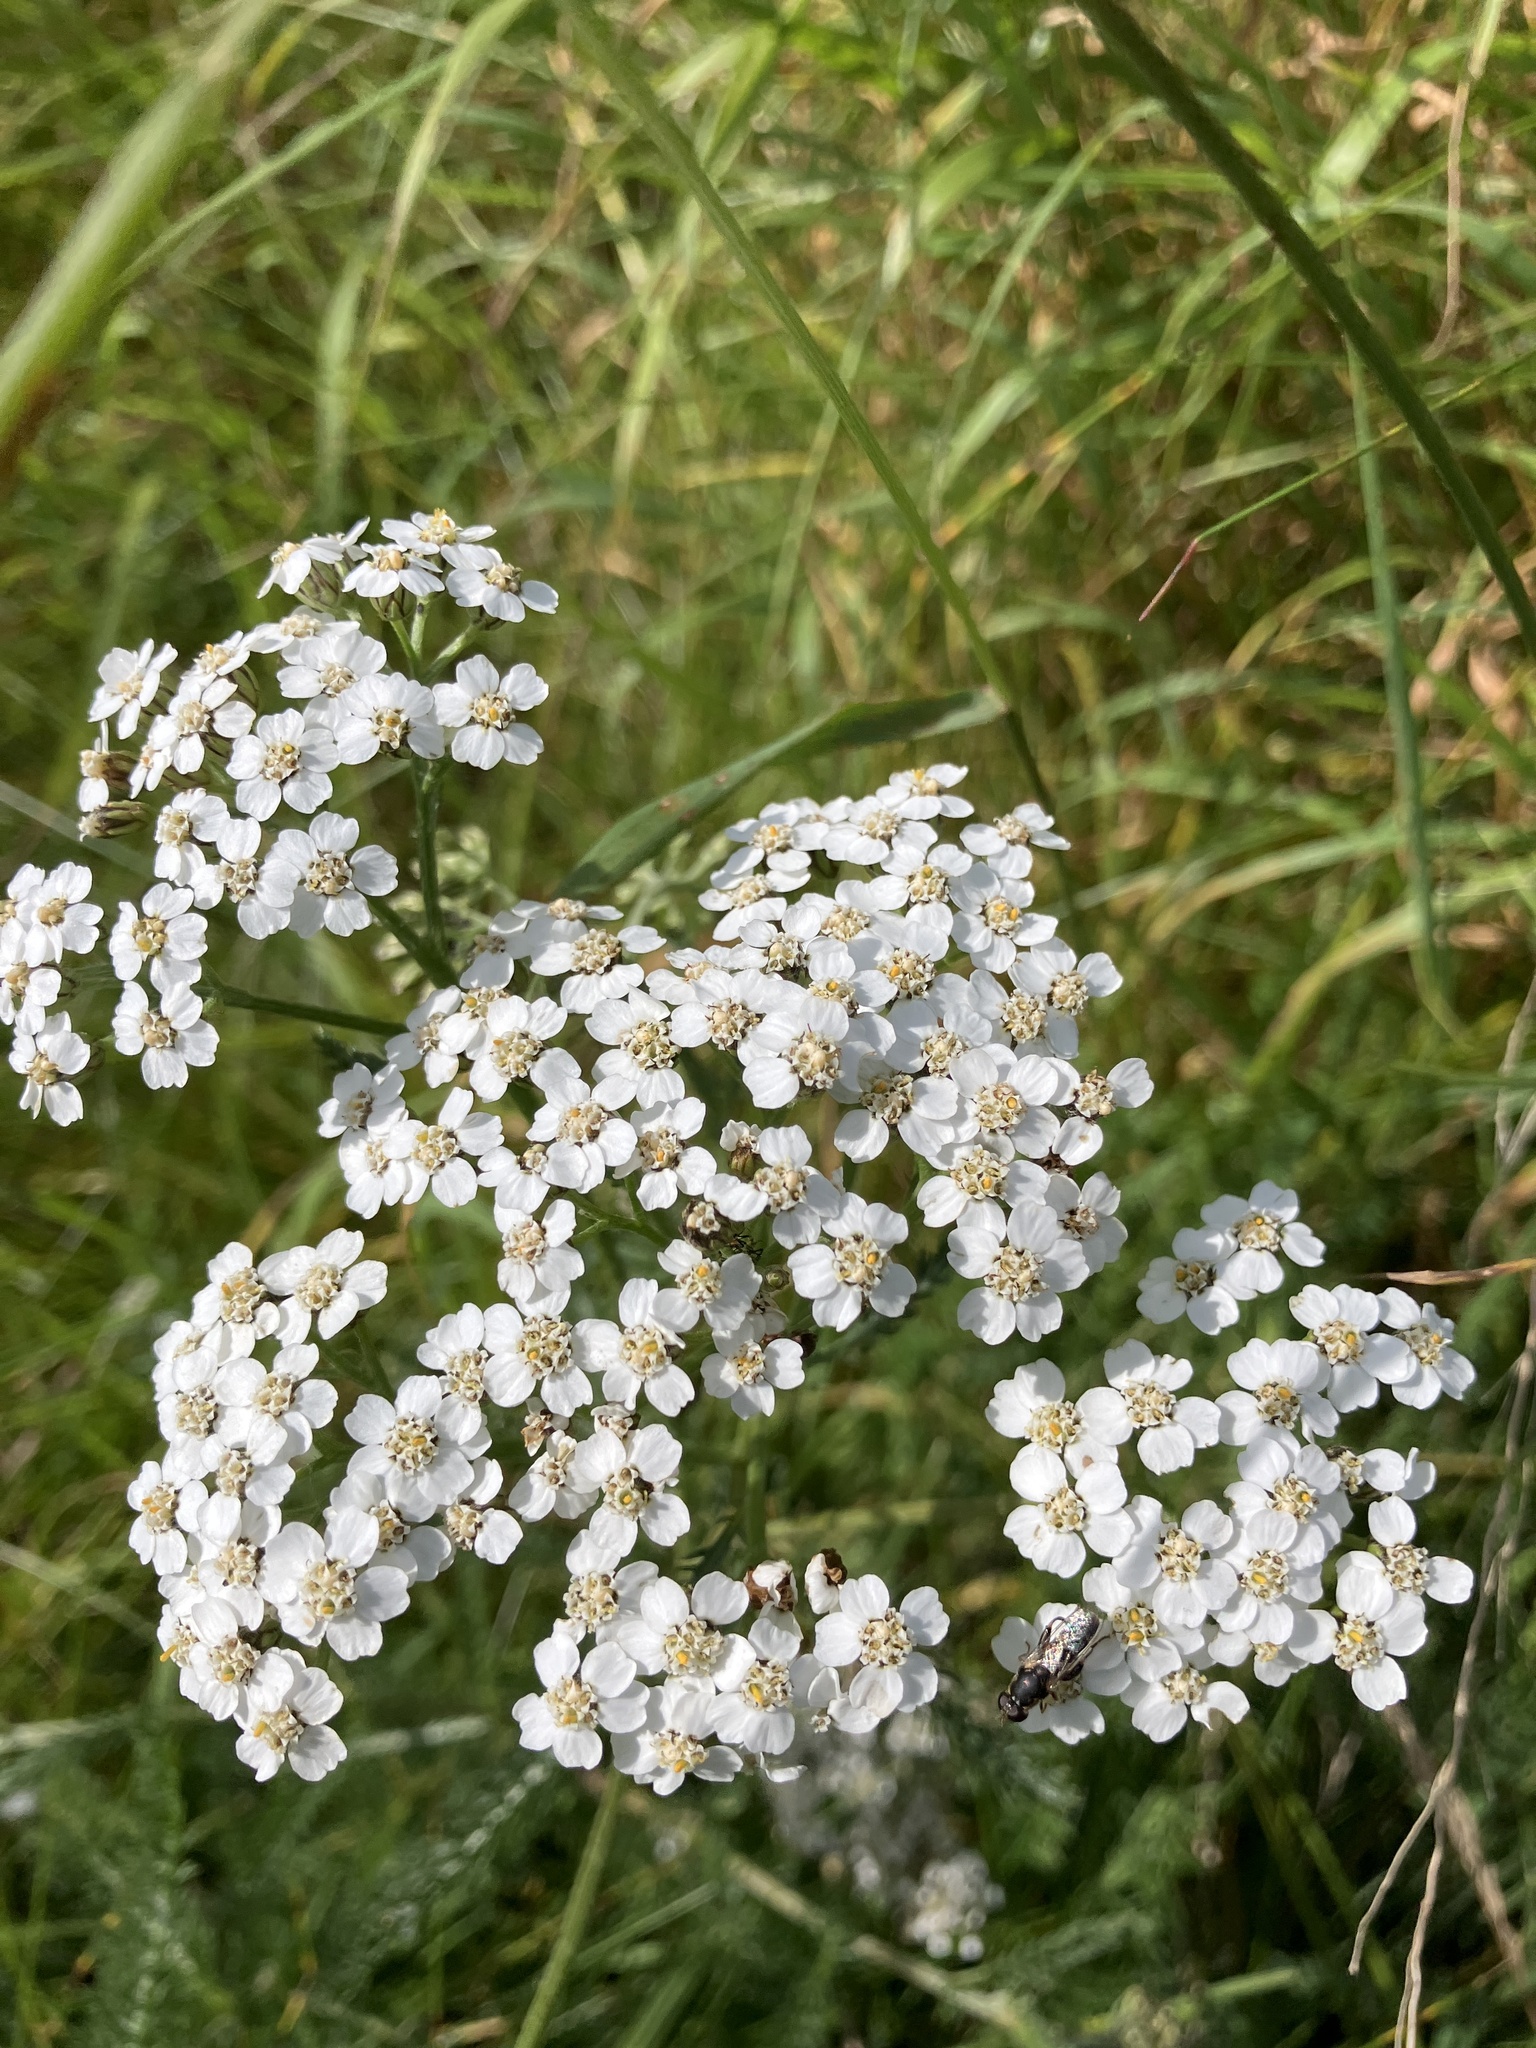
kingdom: Plantae
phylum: Tracheophyta
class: Magnoliopsida
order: Asterales
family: Asteraceae
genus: Achillea
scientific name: Achillea millefolium
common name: Yarrow
